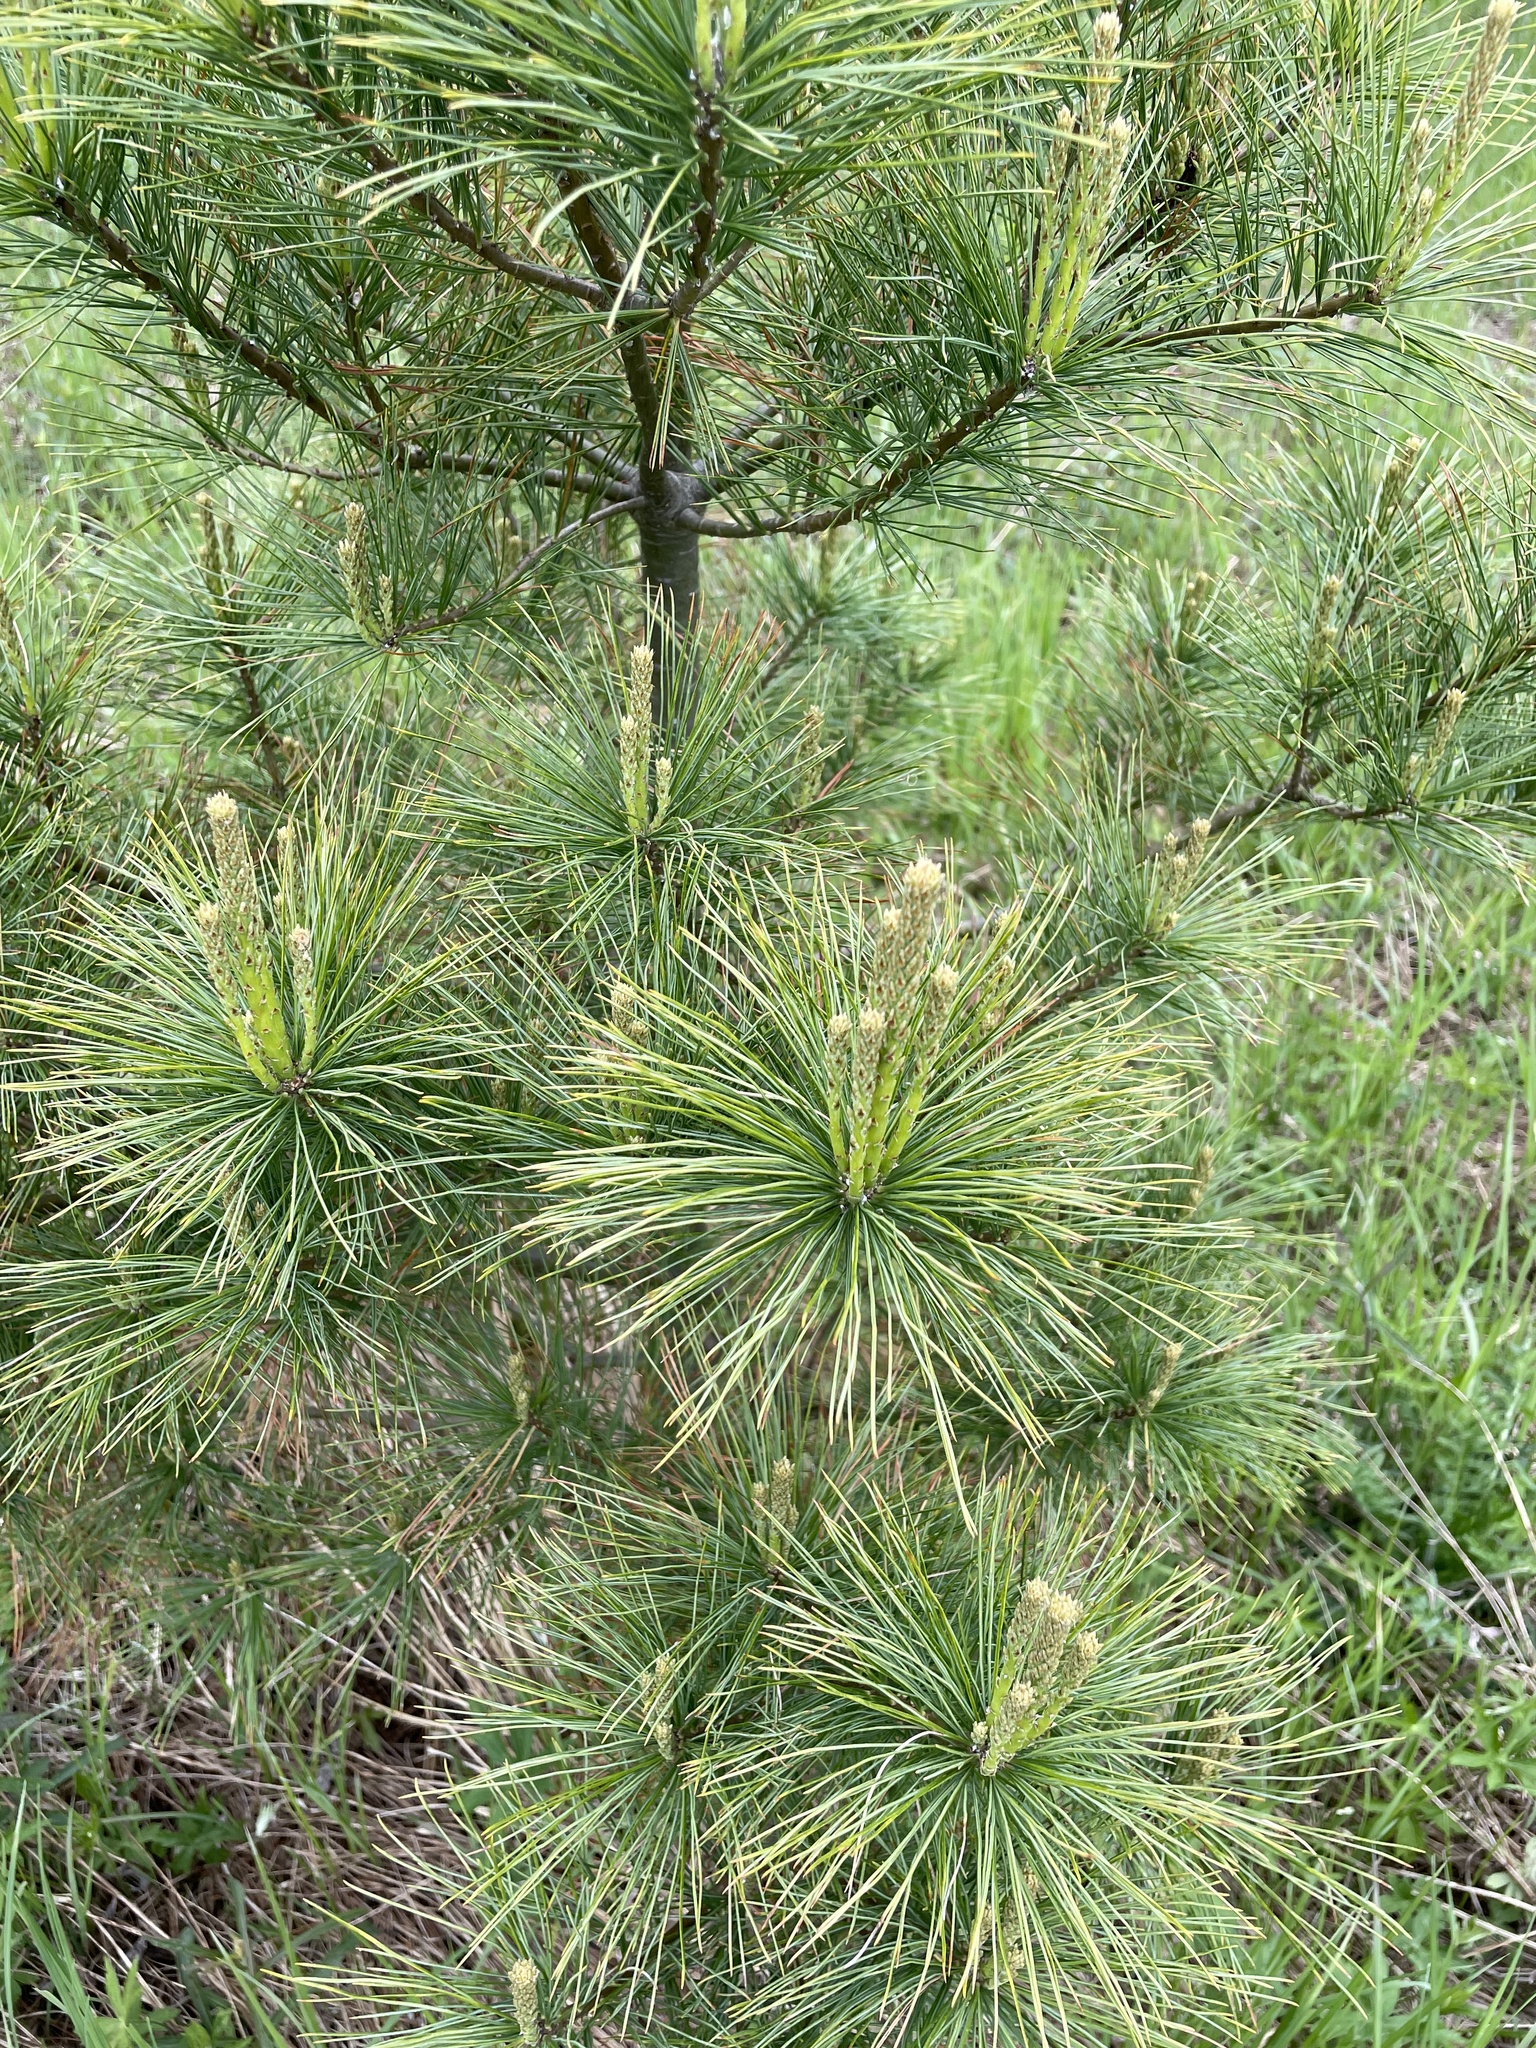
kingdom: Plantae
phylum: Tracheophyta
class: Pinopsida
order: Pinales
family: Pinaceae
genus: Pinus
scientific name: Pinus strobus
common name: Weymouth pine
